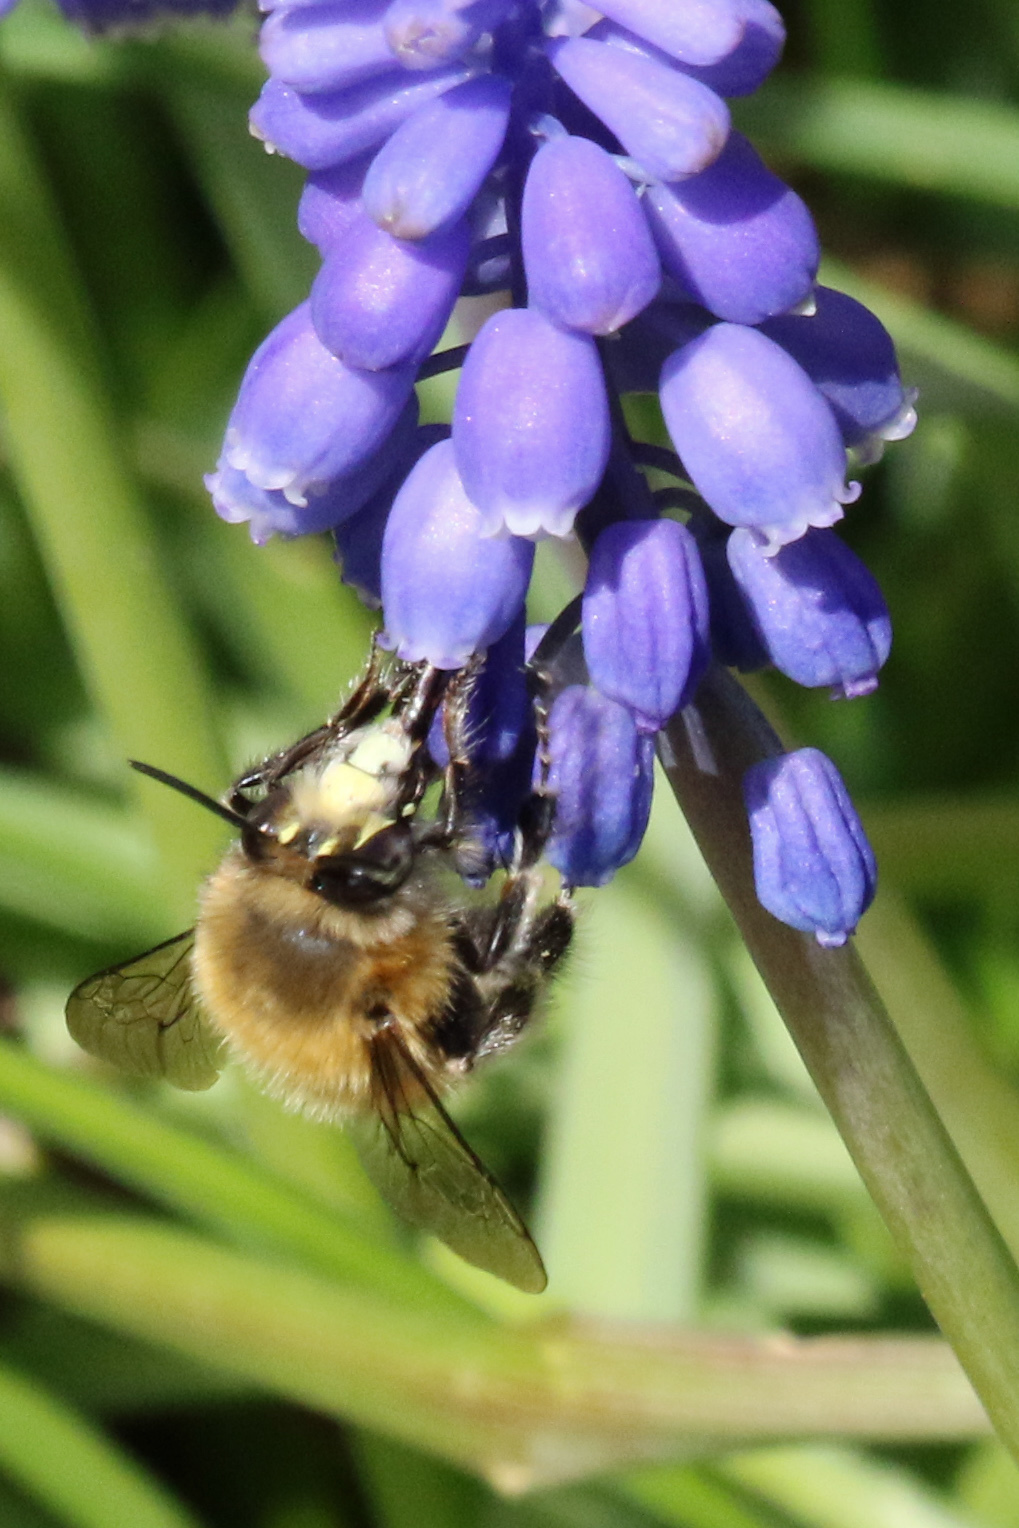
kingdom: Animalia
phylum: Arthropoda
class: Insecta
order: Hymenoptera
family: Apidae
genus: Anthophora
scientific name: Anthophora plumipes
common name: Hairy-footed flower bee
